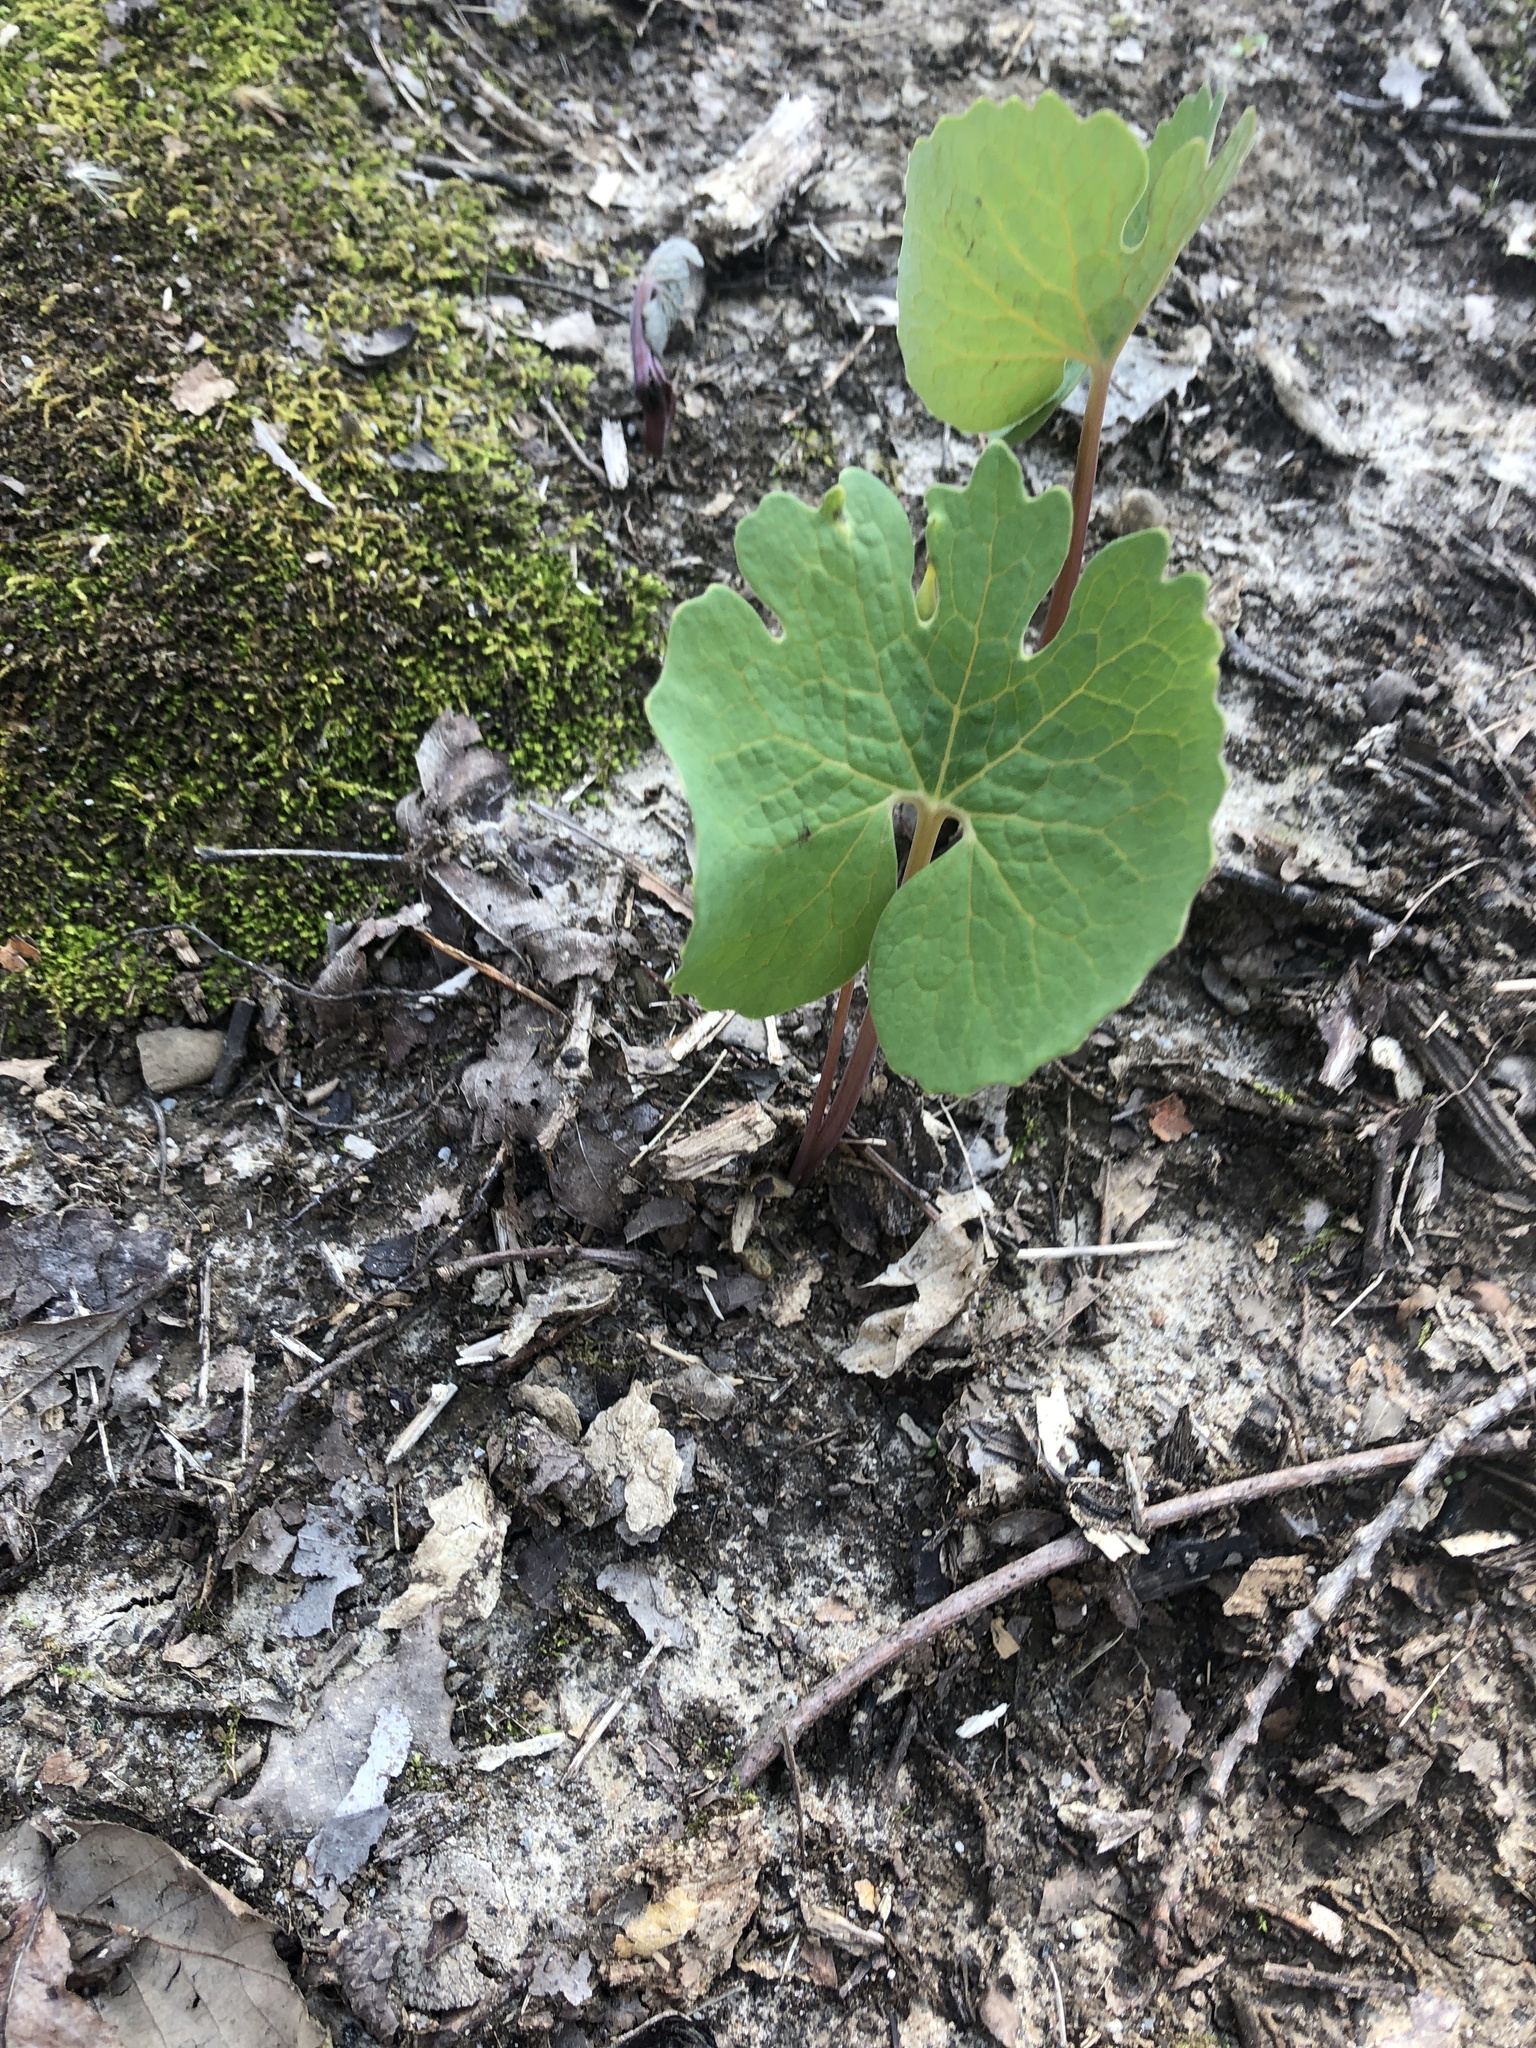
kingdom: Plantae
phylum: Tracheophyta
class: Magnoliopsida
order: Ranunculales
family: Papaveraceae
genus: Sanguinaria
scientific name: Sanguinaria canadensis
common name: Bloodroot
